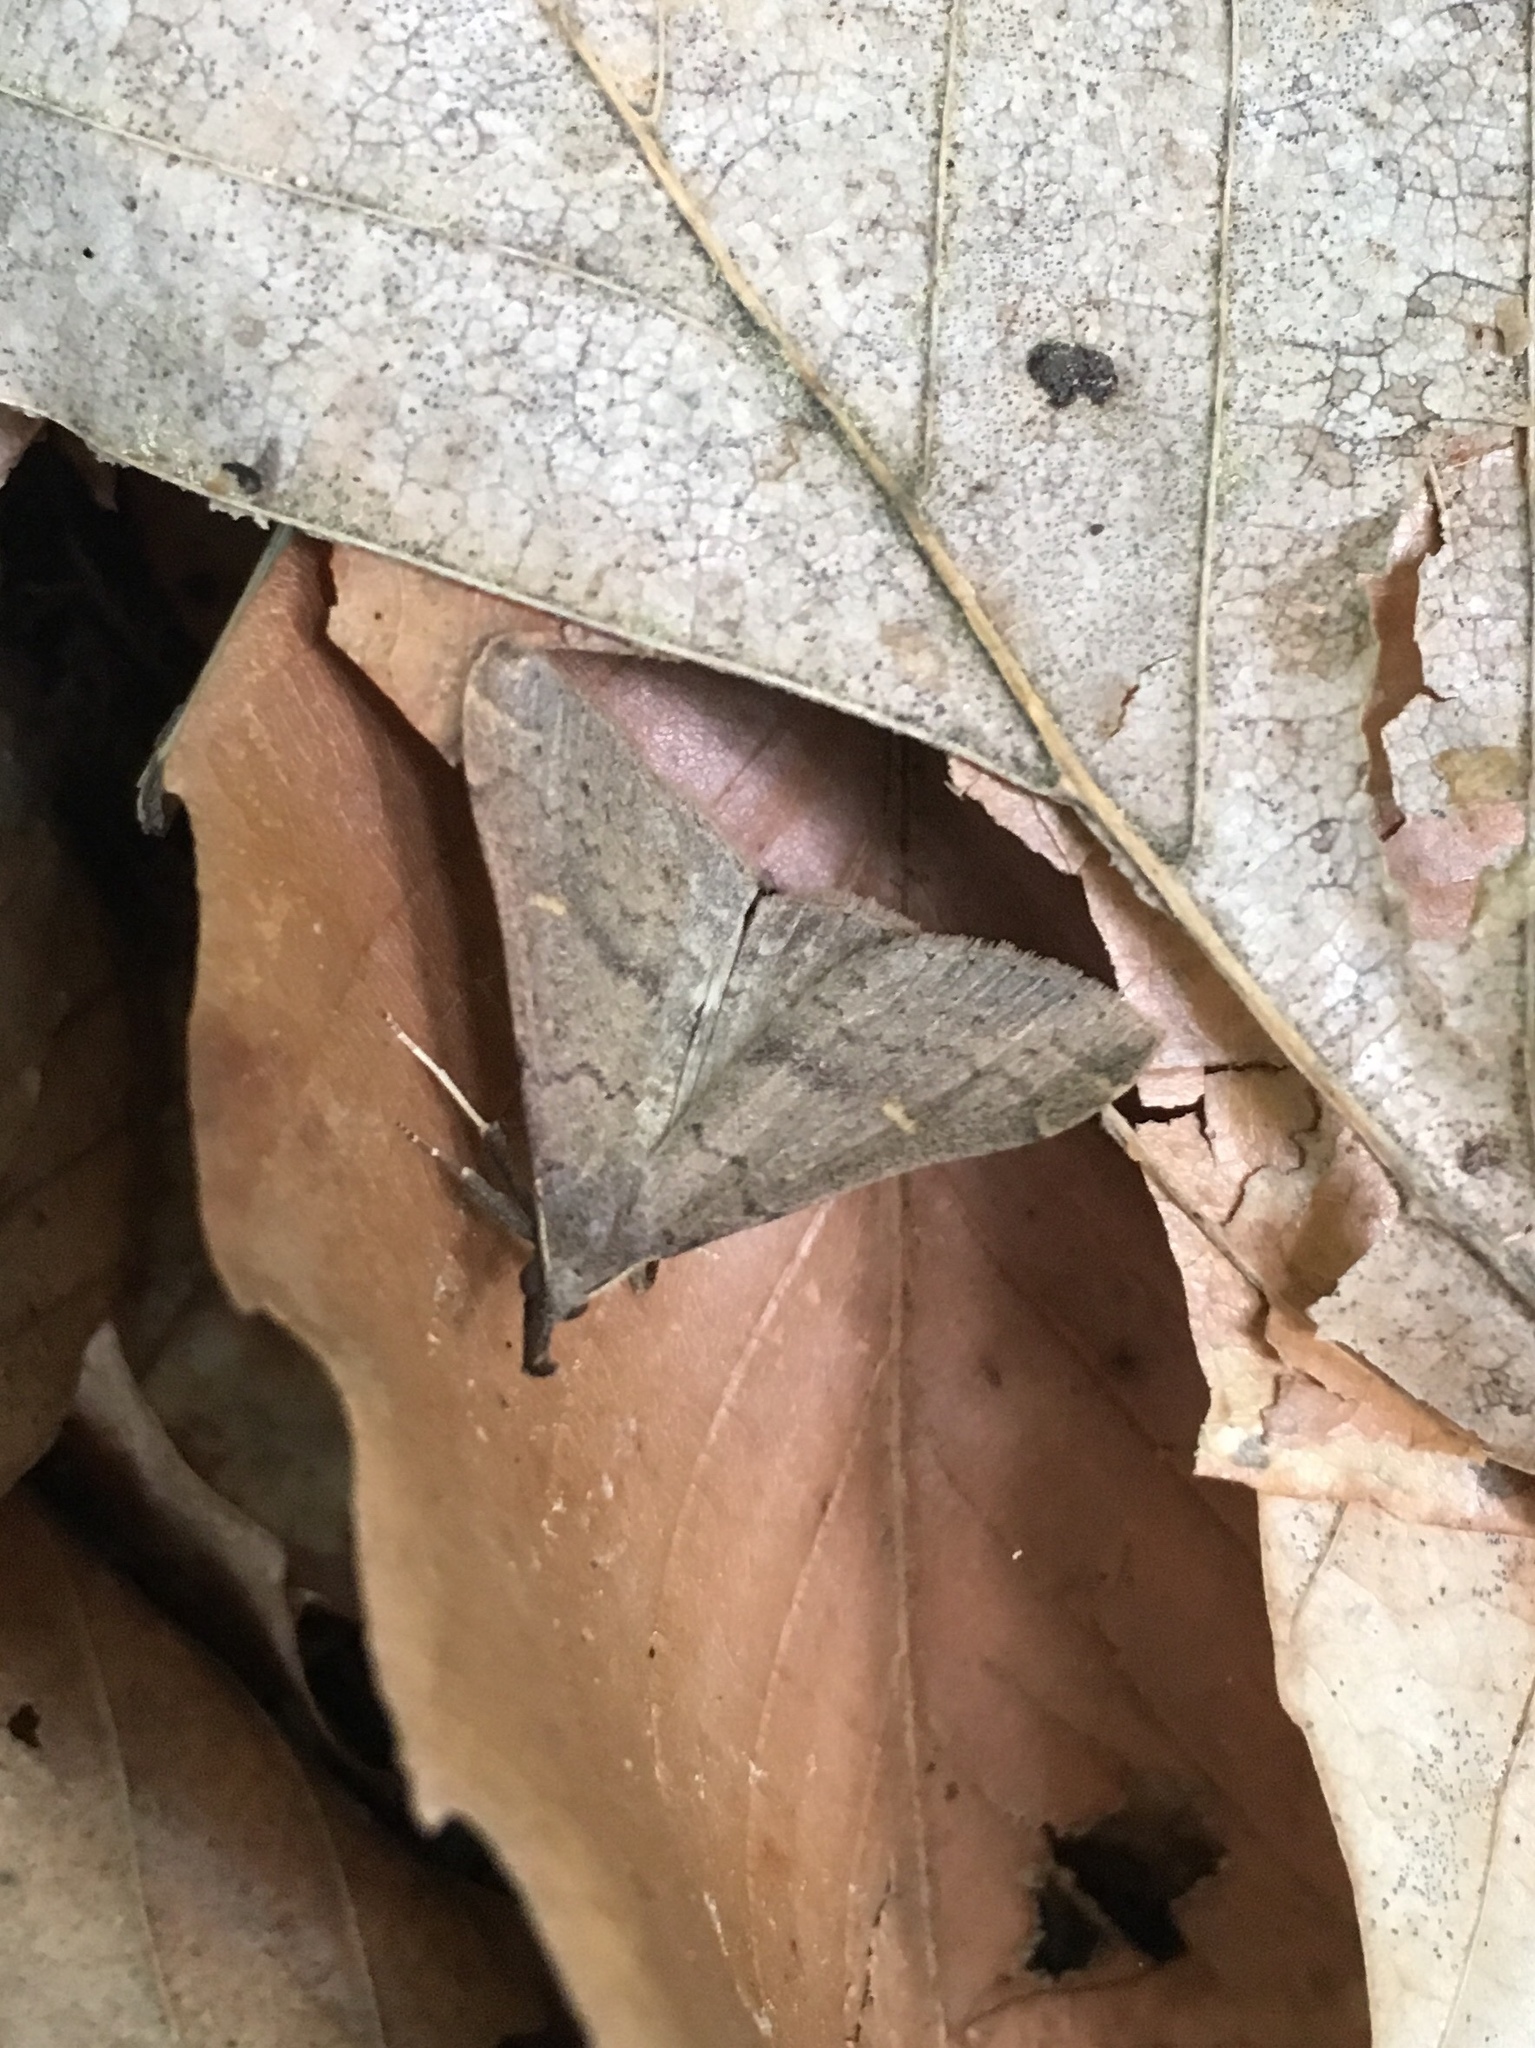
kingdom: Animalia
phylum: Arthropoda
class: Insecta
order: Lepidoptera
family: Erebidae
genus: Renia
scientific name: Renia adspergillus
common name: Speckled renia moth
